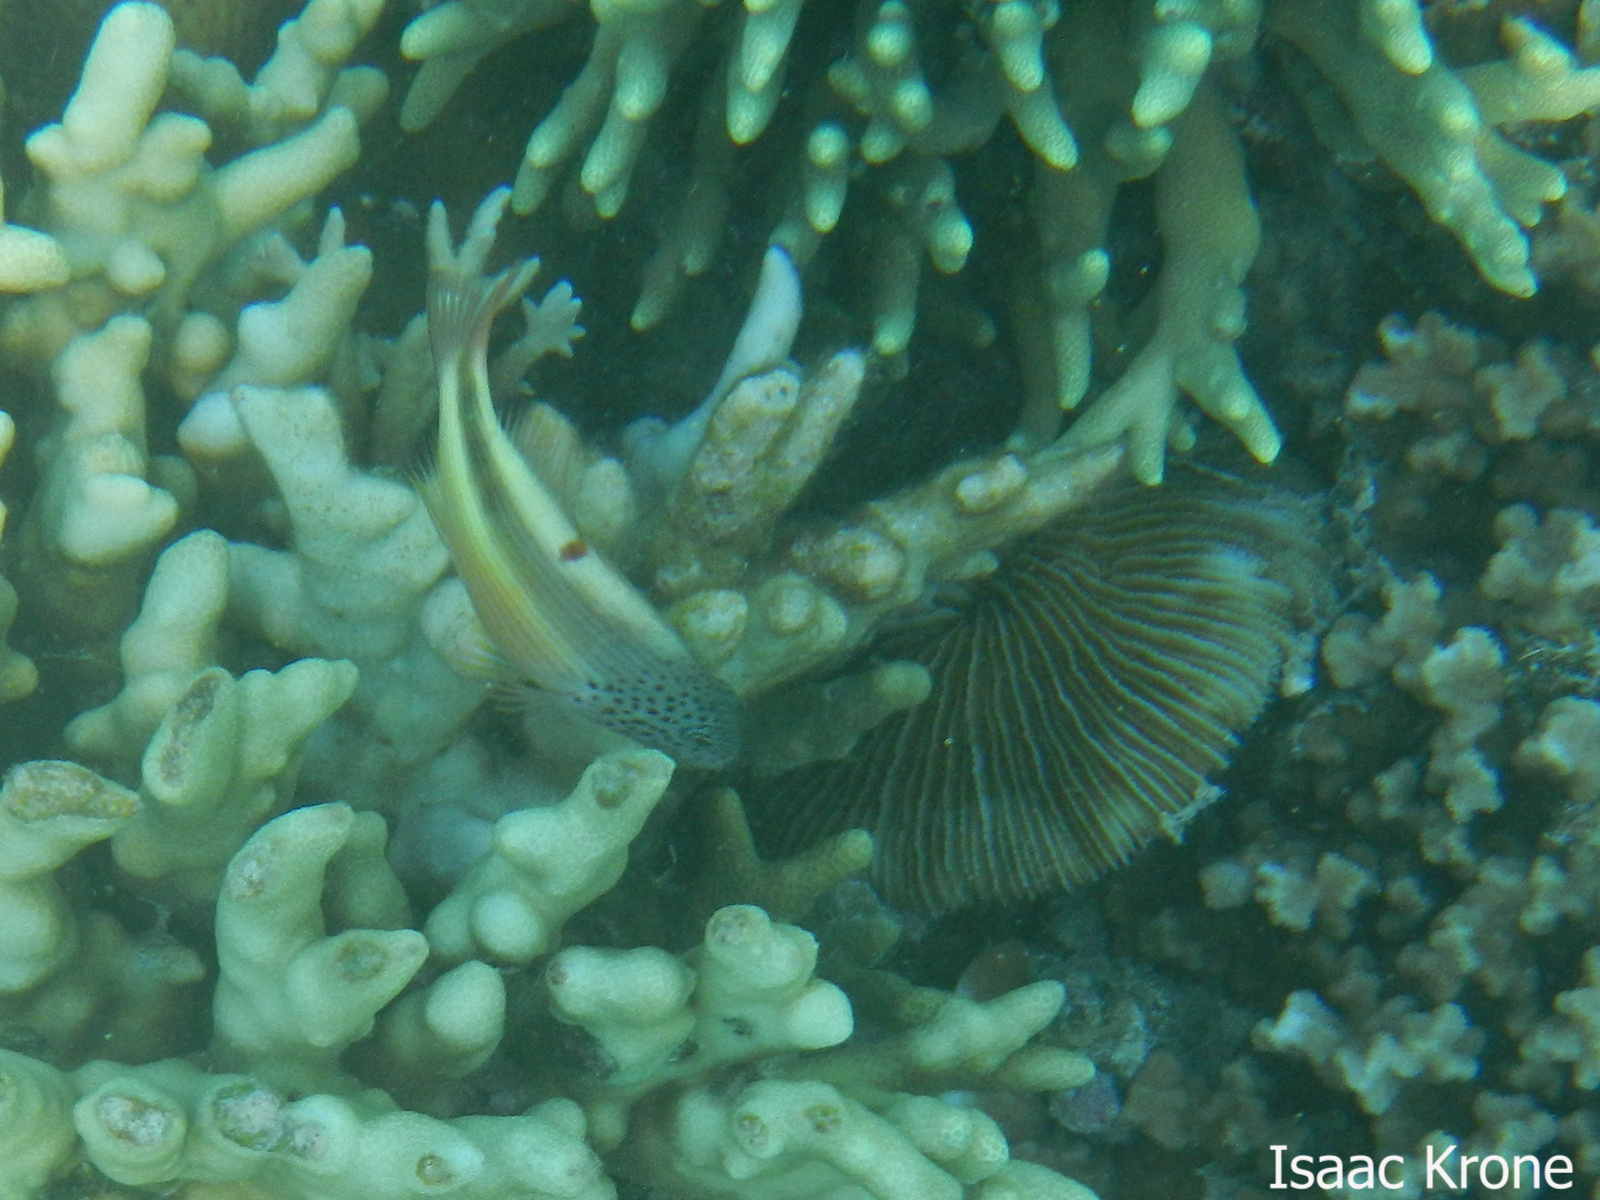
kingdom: Animalia
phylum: Chordata
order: Perciformes
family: Cirrhitidae
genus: Paracirrhites
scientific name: Paracirrhites forsteri
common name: Freckled hawkfish
